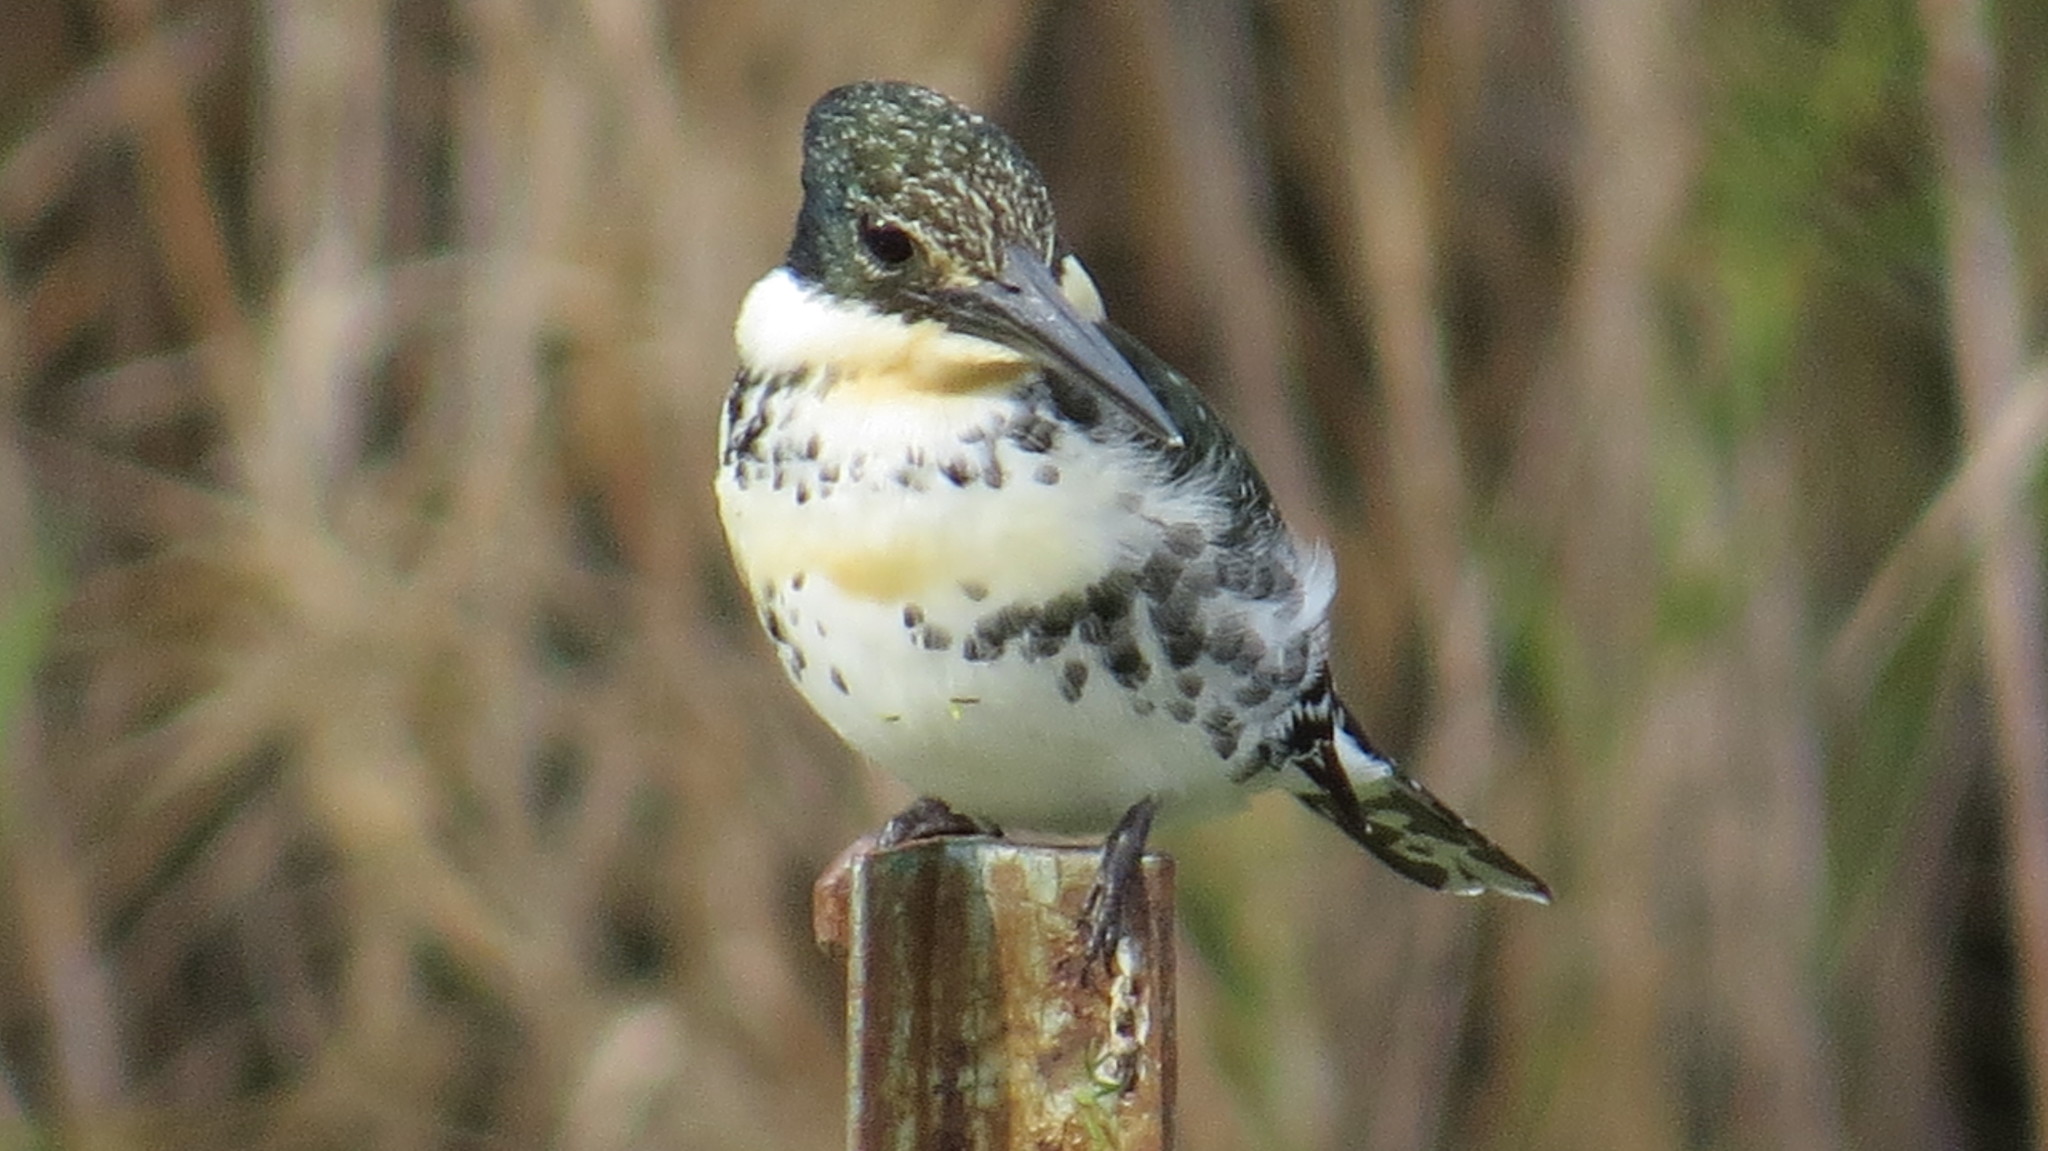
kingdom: Animalia
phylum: Chordata
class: Aves
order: Coraciiformes
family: Alcedinidae
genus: Chloroceryle
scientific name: Chloroceryle americana
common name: Green kingfisher
